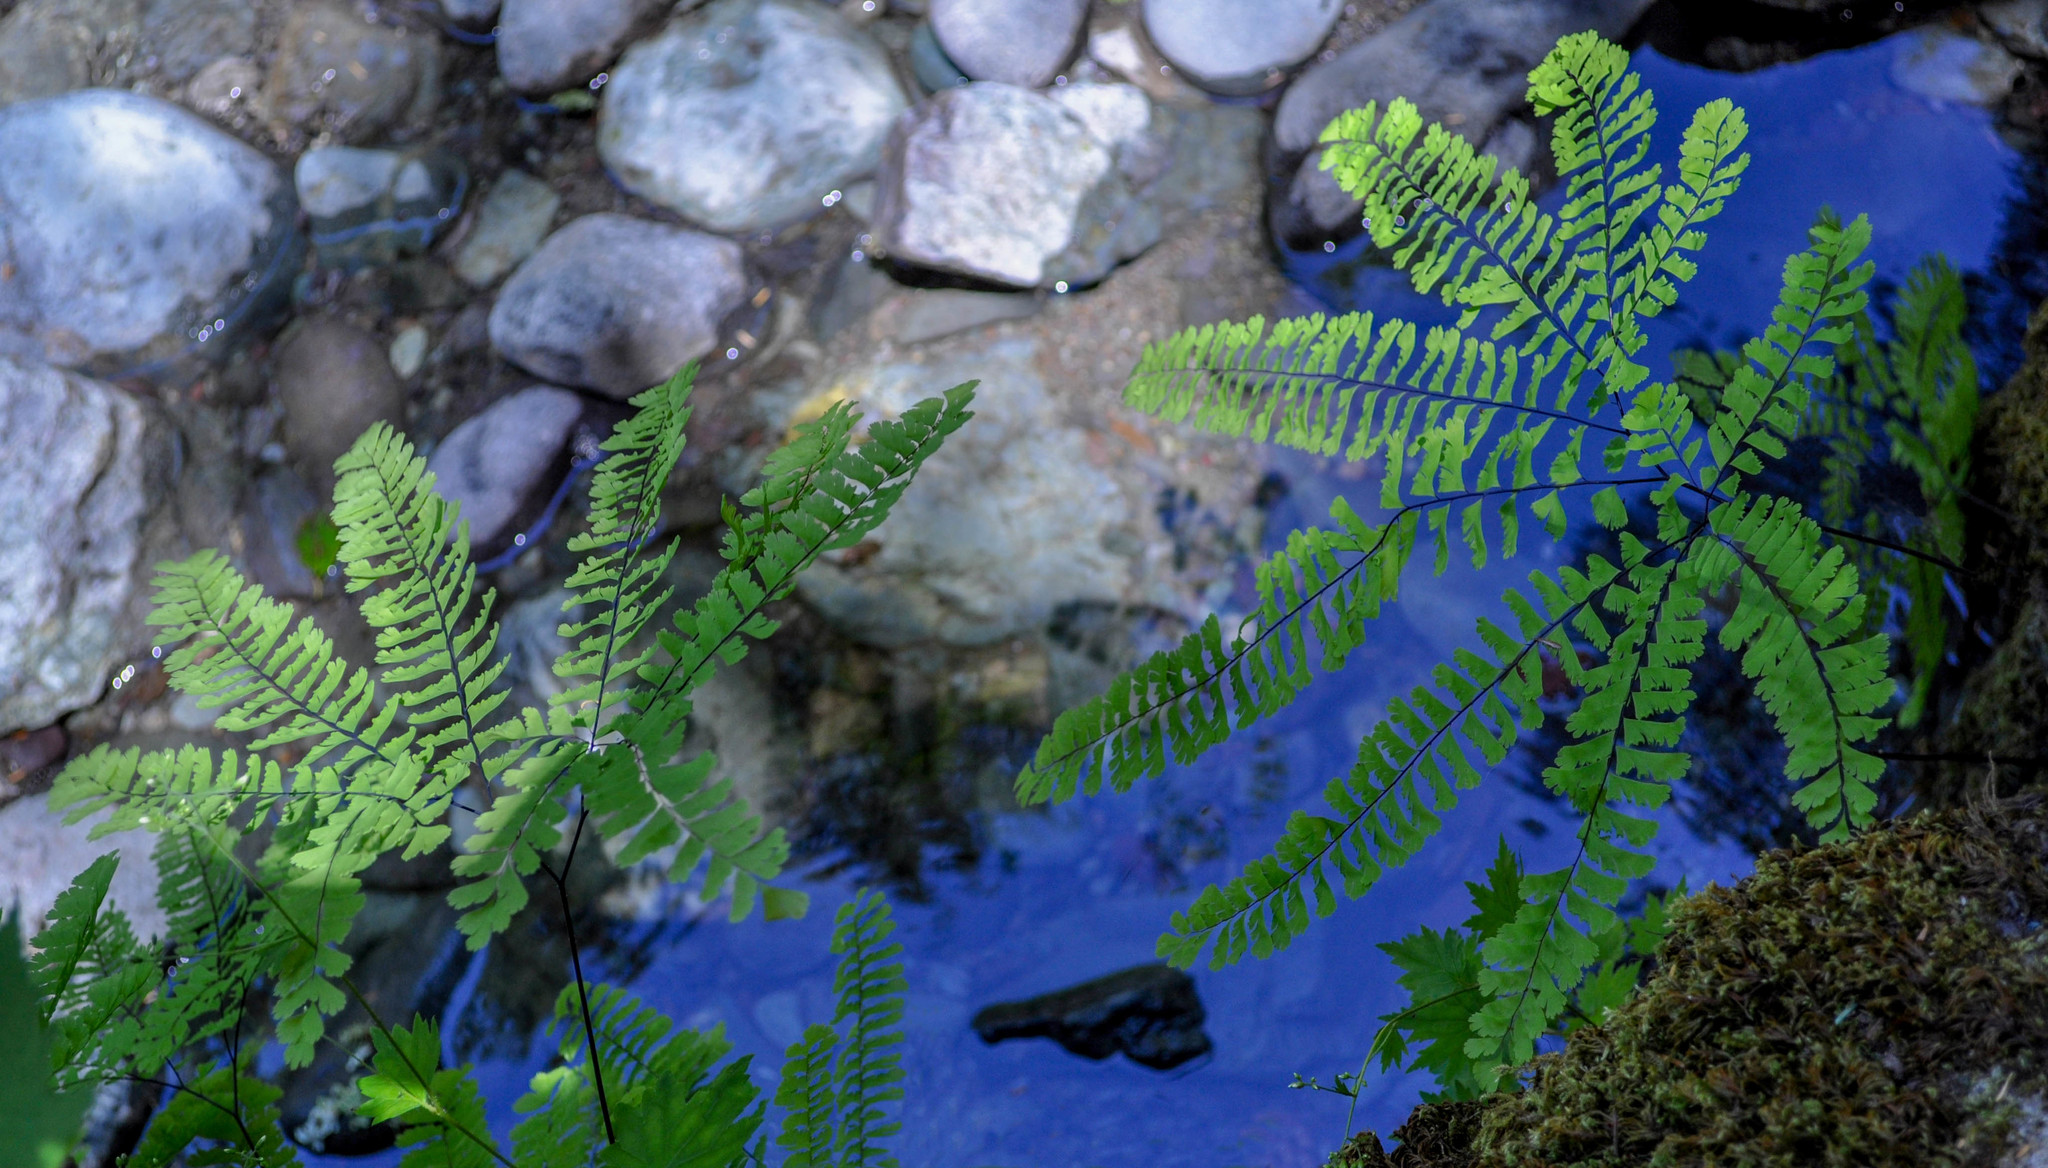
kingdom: Plantae
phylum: Tracheophyta
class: Polypodiopsida
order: Polypodiales
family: Pteridaceae
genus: Adiantum
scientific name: Adiantum aleuticum
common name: Aleutian maidenhair fern
